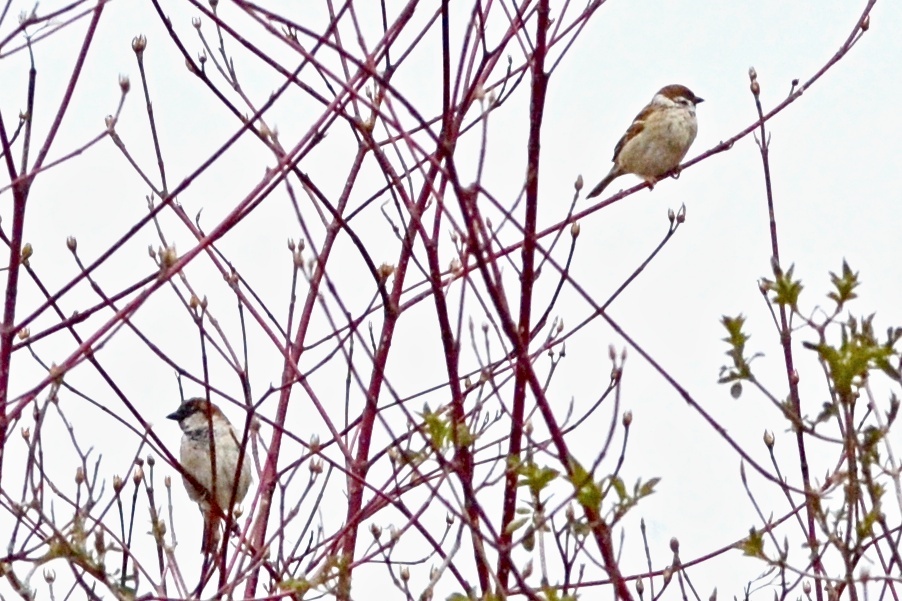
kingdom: Animalia
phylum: Chordata
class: Aves
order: Passeriformes
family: Passeridae
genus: Passer
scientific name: Passer domesticus
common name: House sparrow
